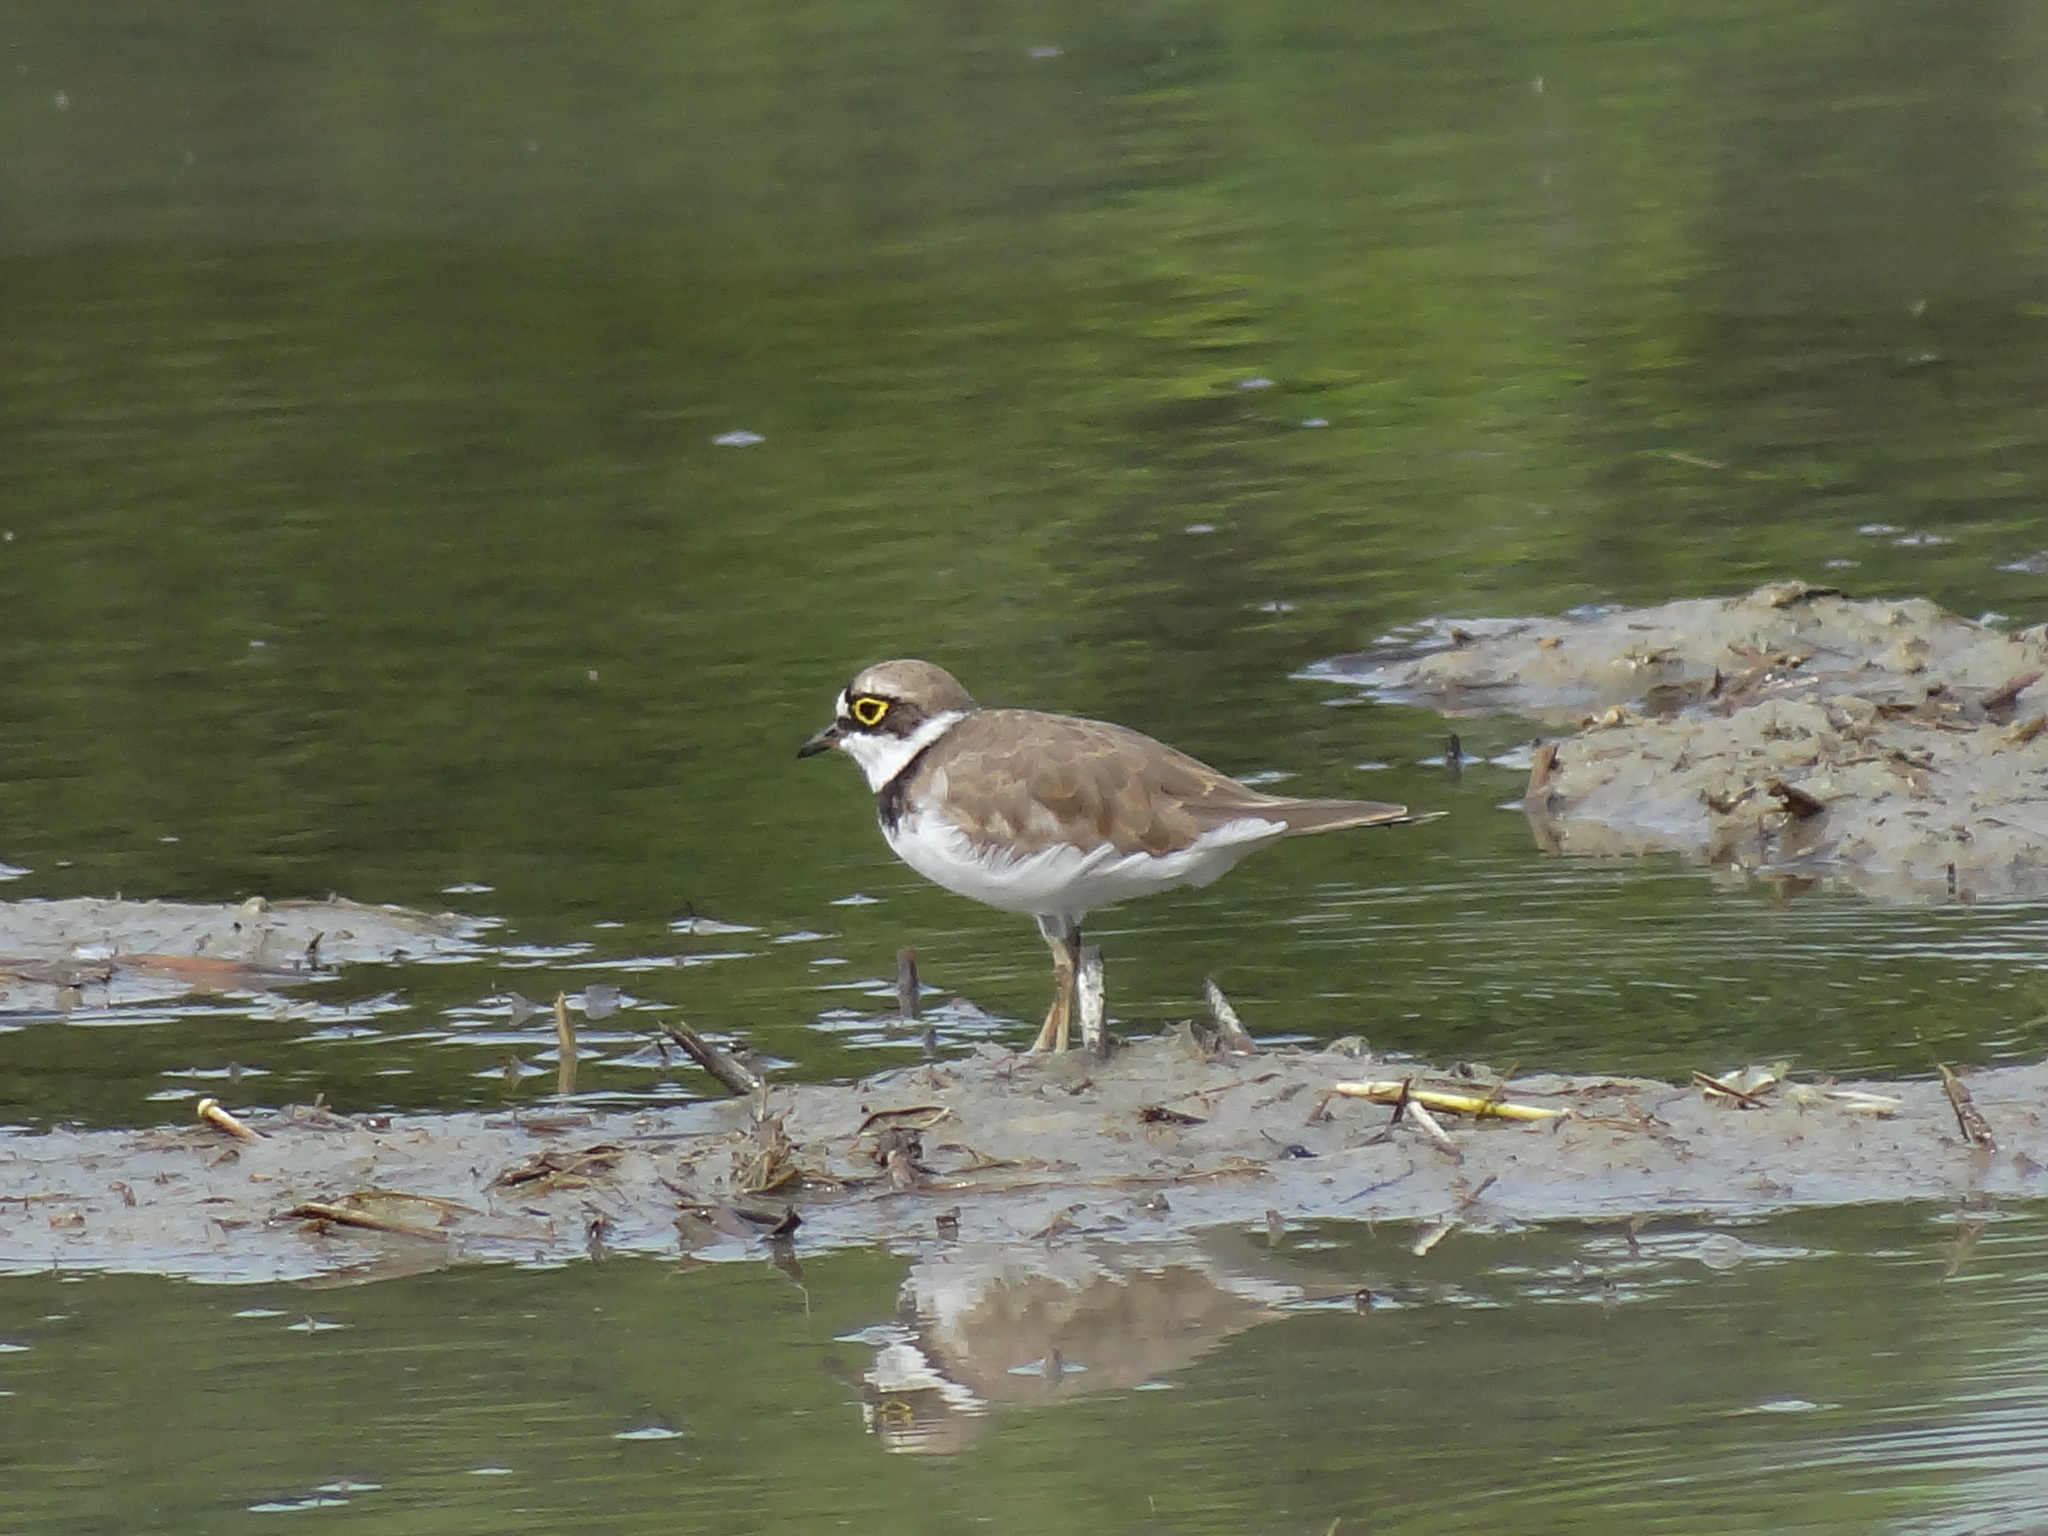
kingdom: Animalia
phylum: Chordata
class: Aves
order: Charadriiformes
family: Charadriidae
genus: Charadrius
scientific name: Charadrius dubius
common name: Little ringed plover
